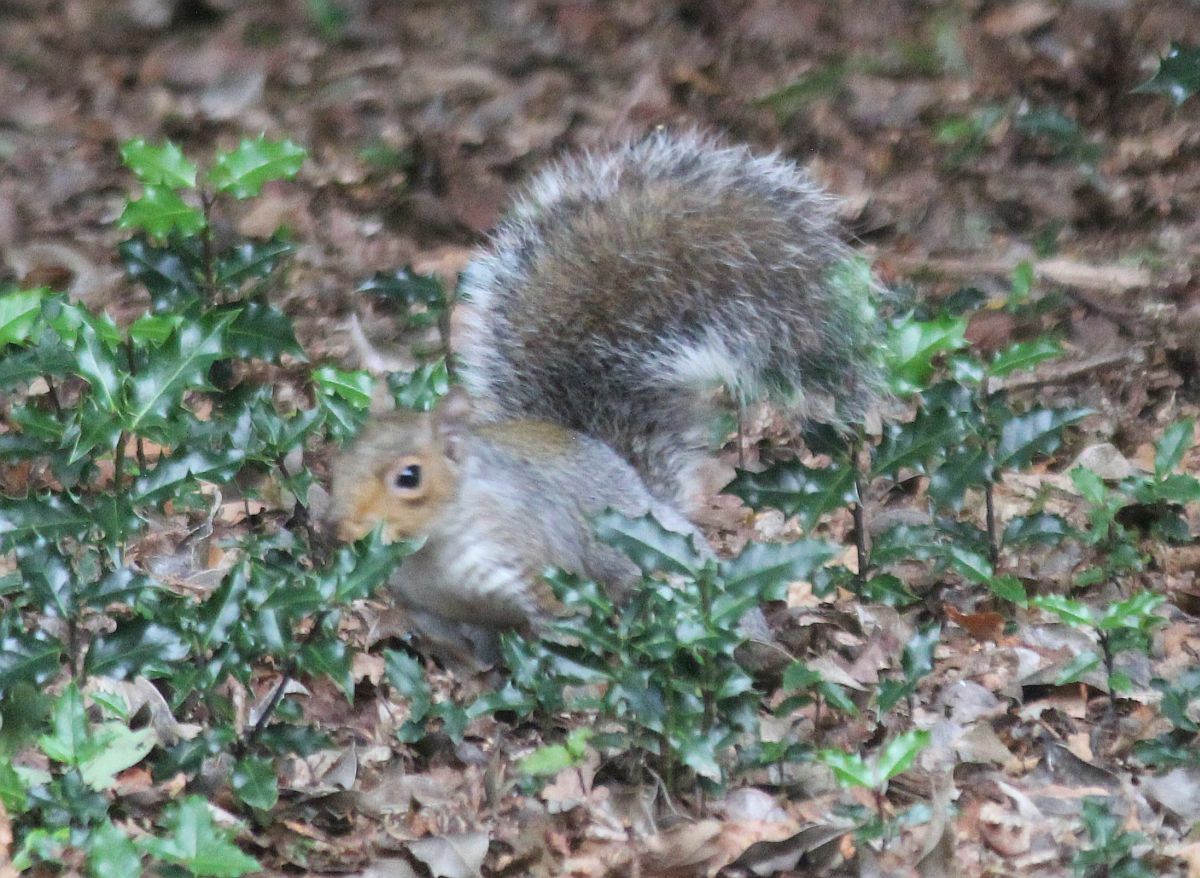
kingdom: Animalia
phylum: Chordata
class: Mammalia
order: Rodentia
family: Sciuridae
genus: Sciurus
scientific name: Sciurus carolinensis
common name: Eastern gray squirrel
